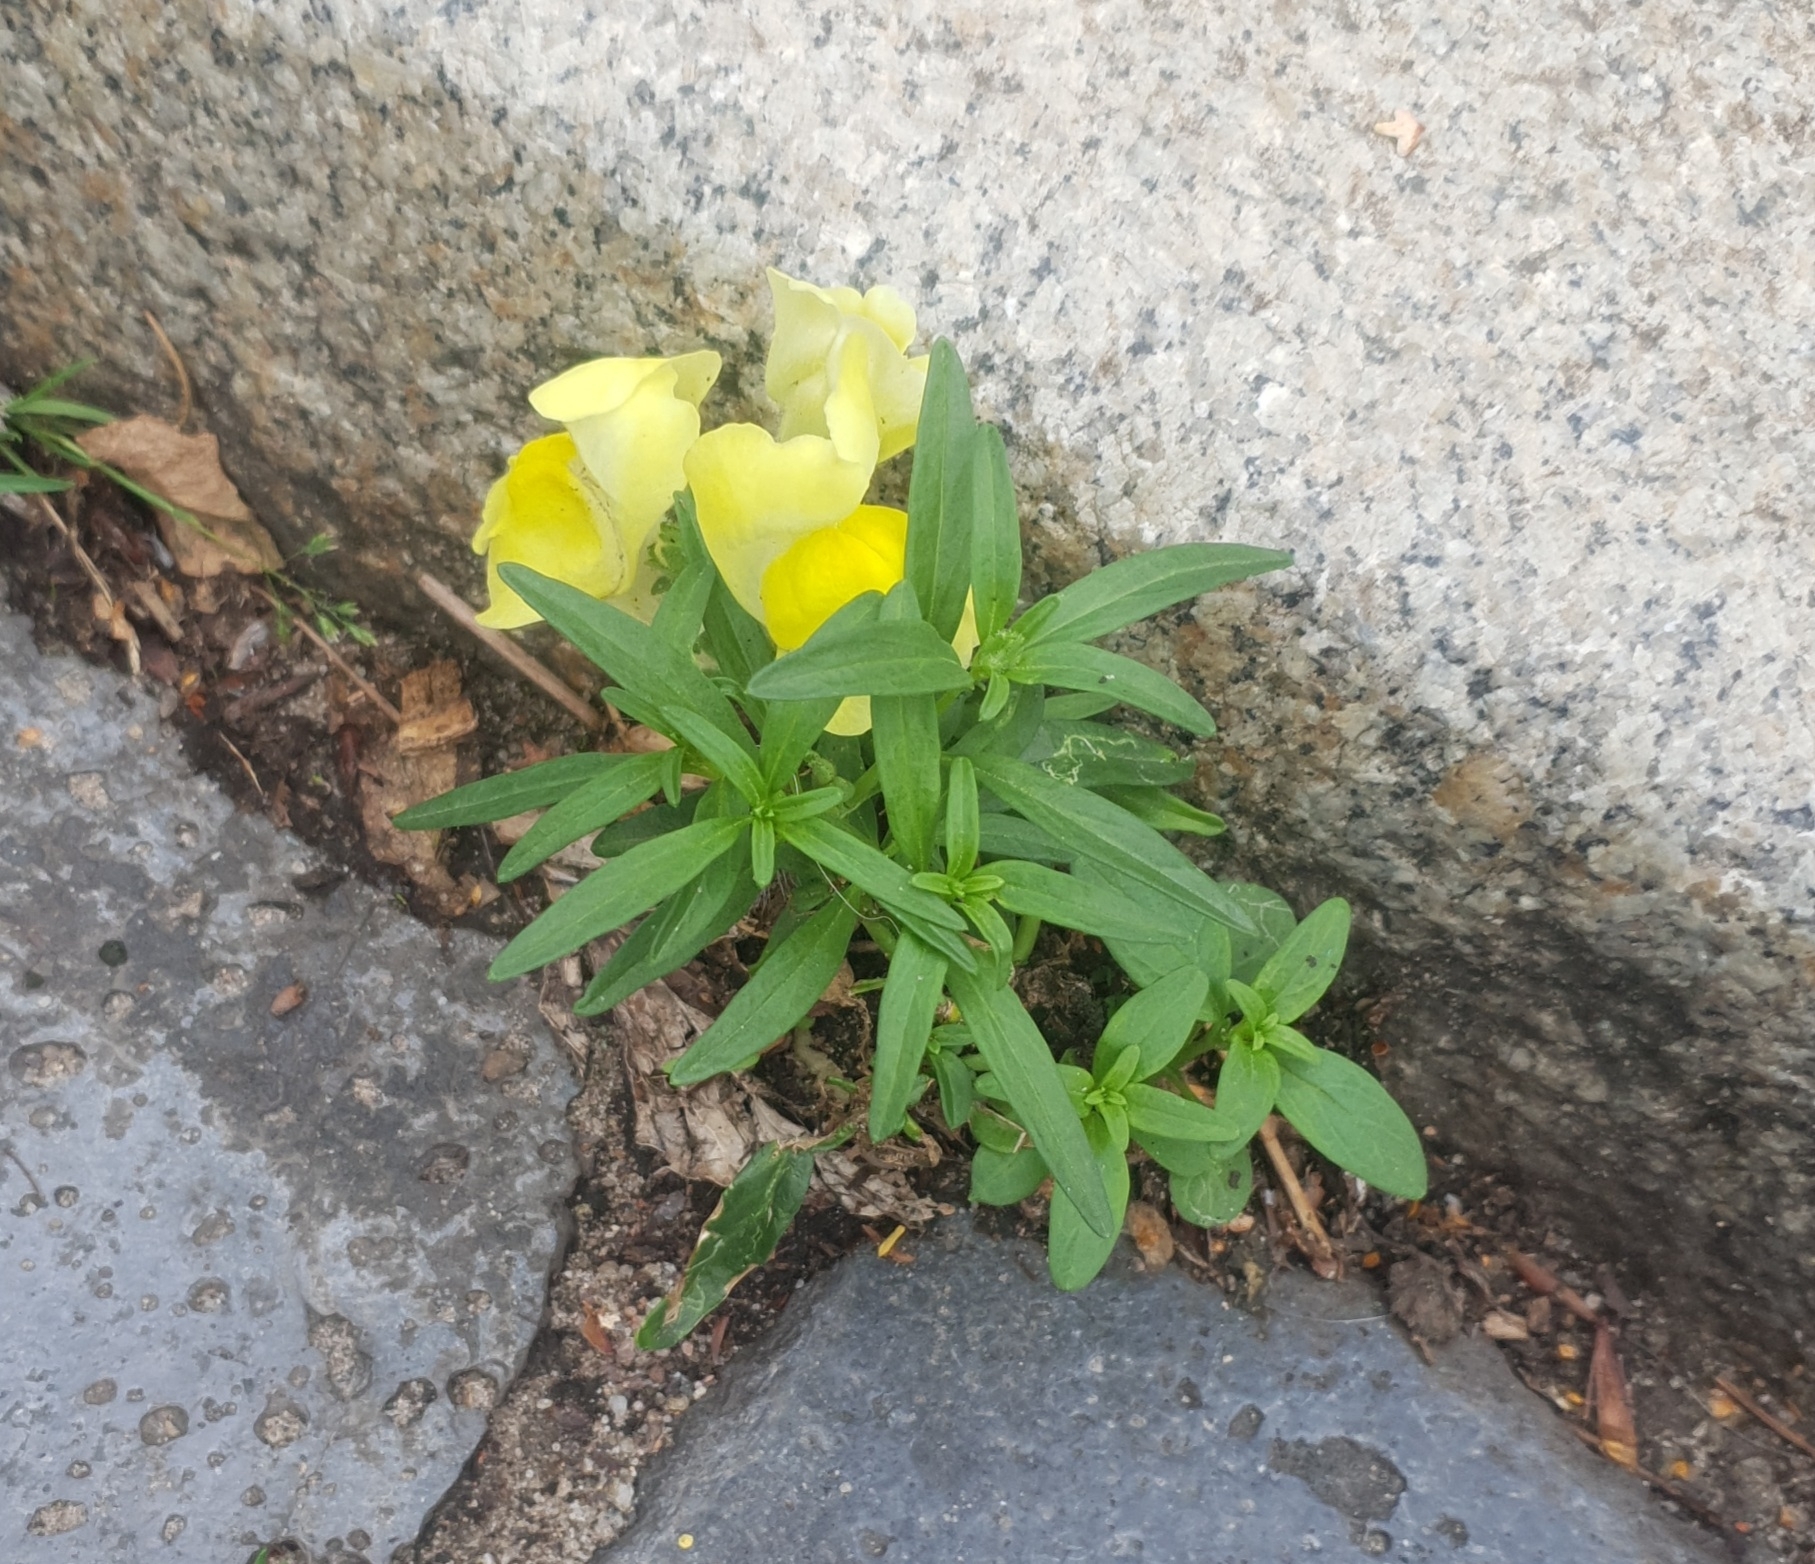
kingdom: Plantae
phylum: Tracheophyta
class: Magnoliopsida
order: Lamiales
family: Plantaginaceae
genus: Antirrhinum
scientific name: Antirrhinum majus
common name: Snapdragon
